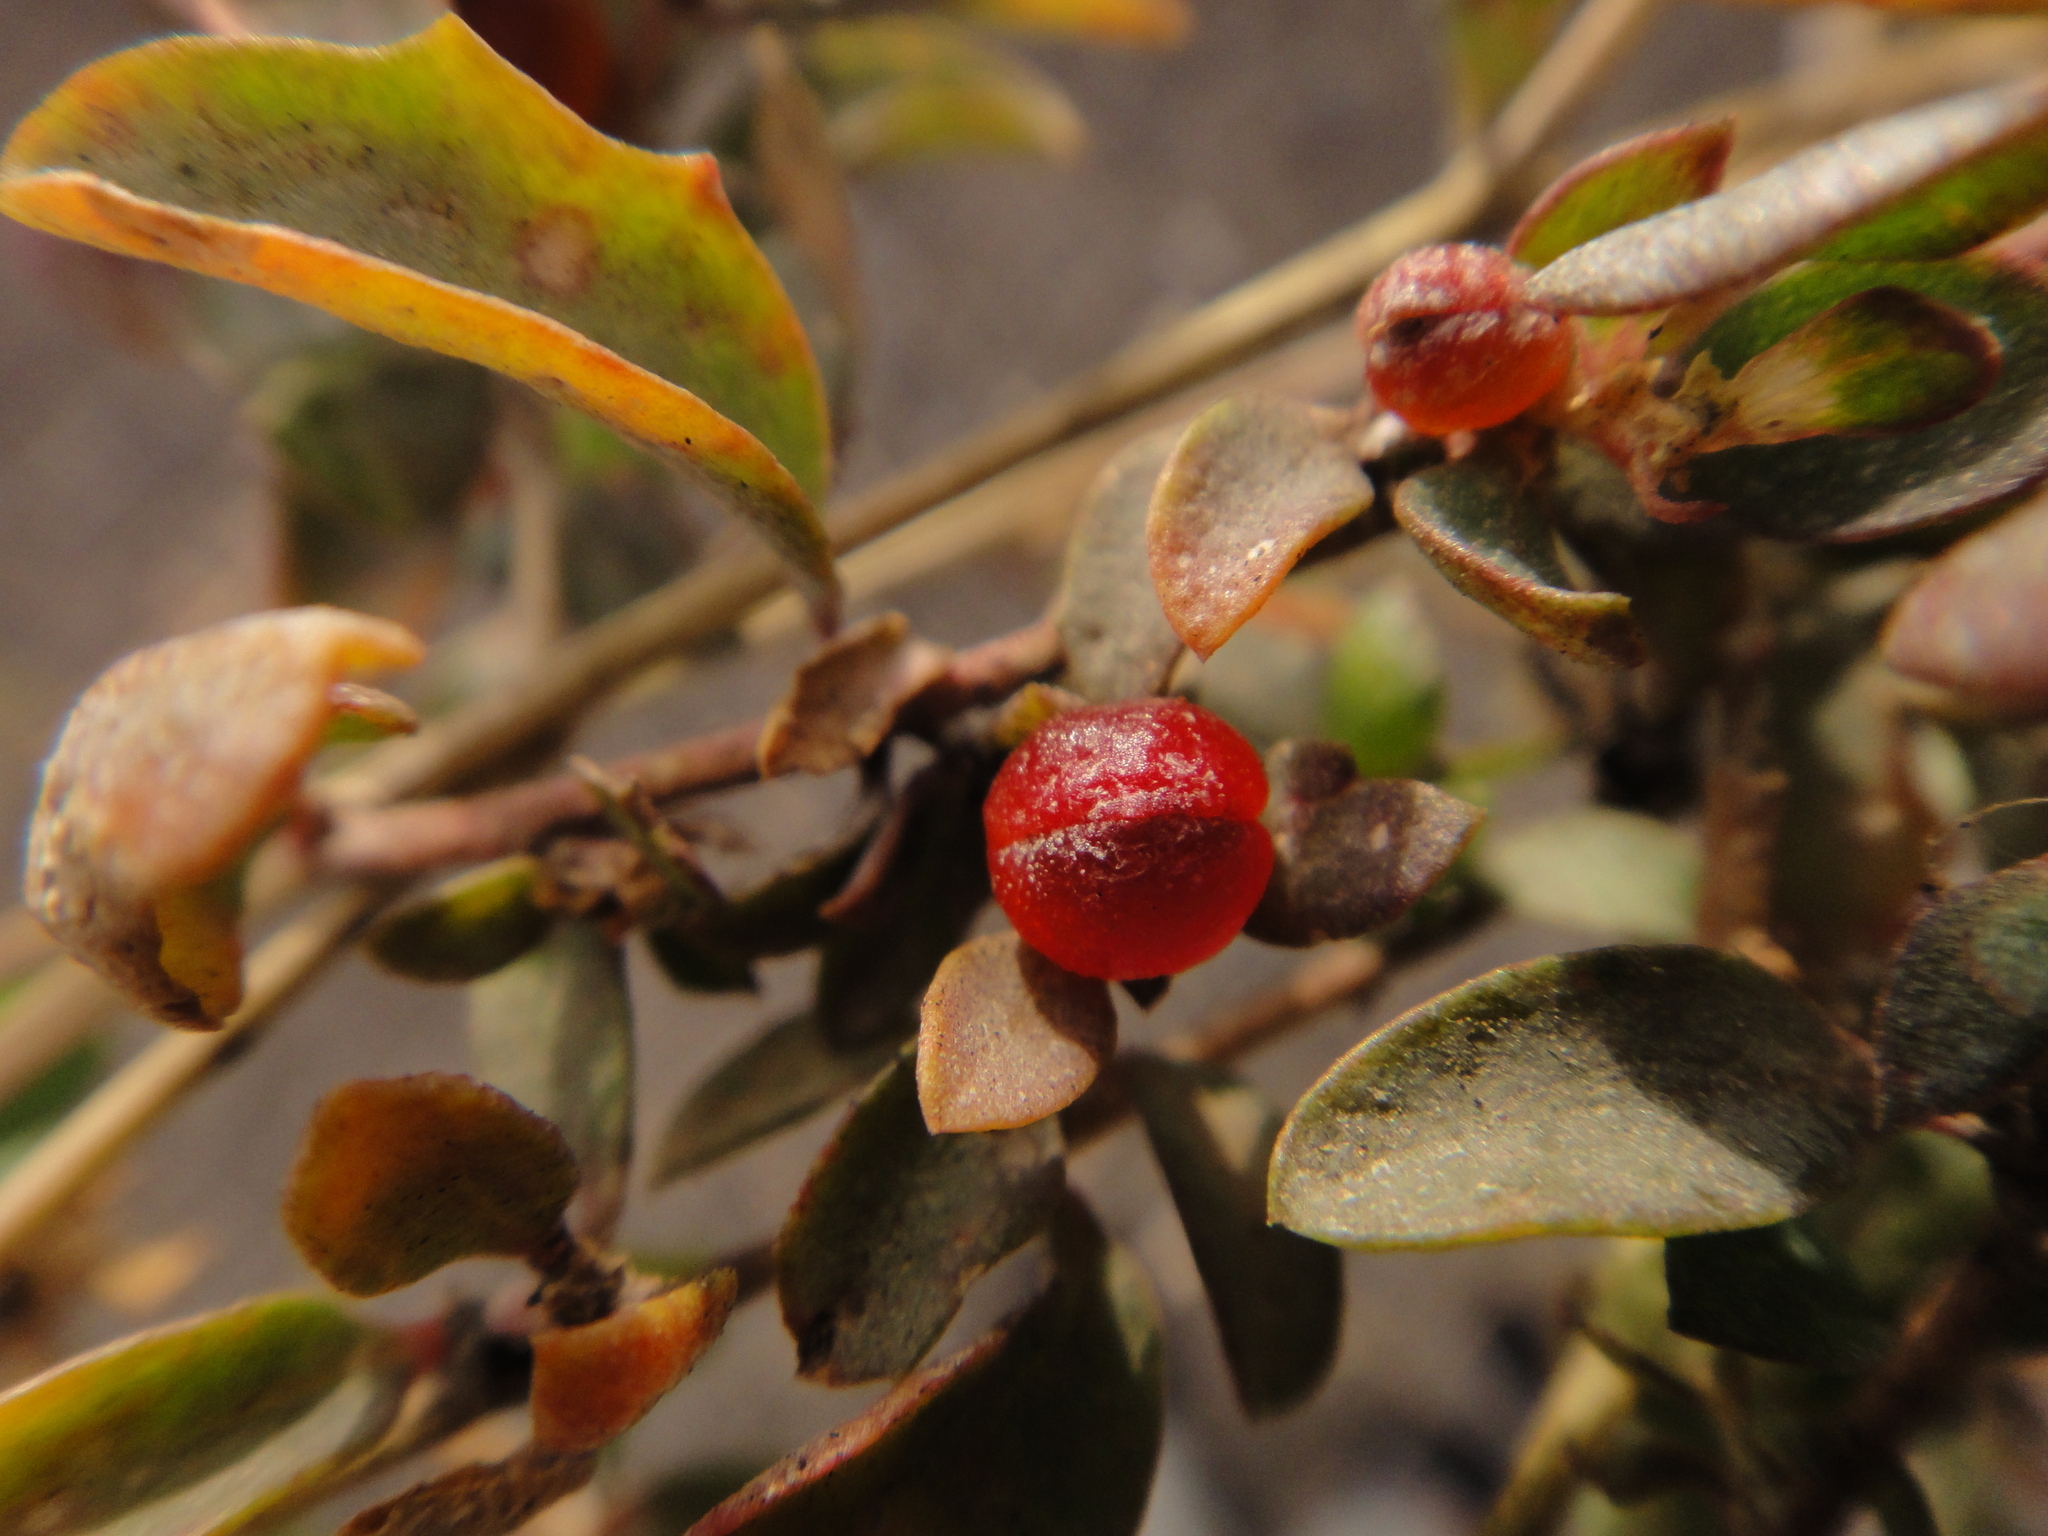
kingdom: Plantae
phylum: Tracheophyta
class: Magnoliopsida
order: Caryophyllales
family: Amaranthaceae
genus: Atriplex
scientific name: Atriplex semibaccata
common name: Australian saltbush
